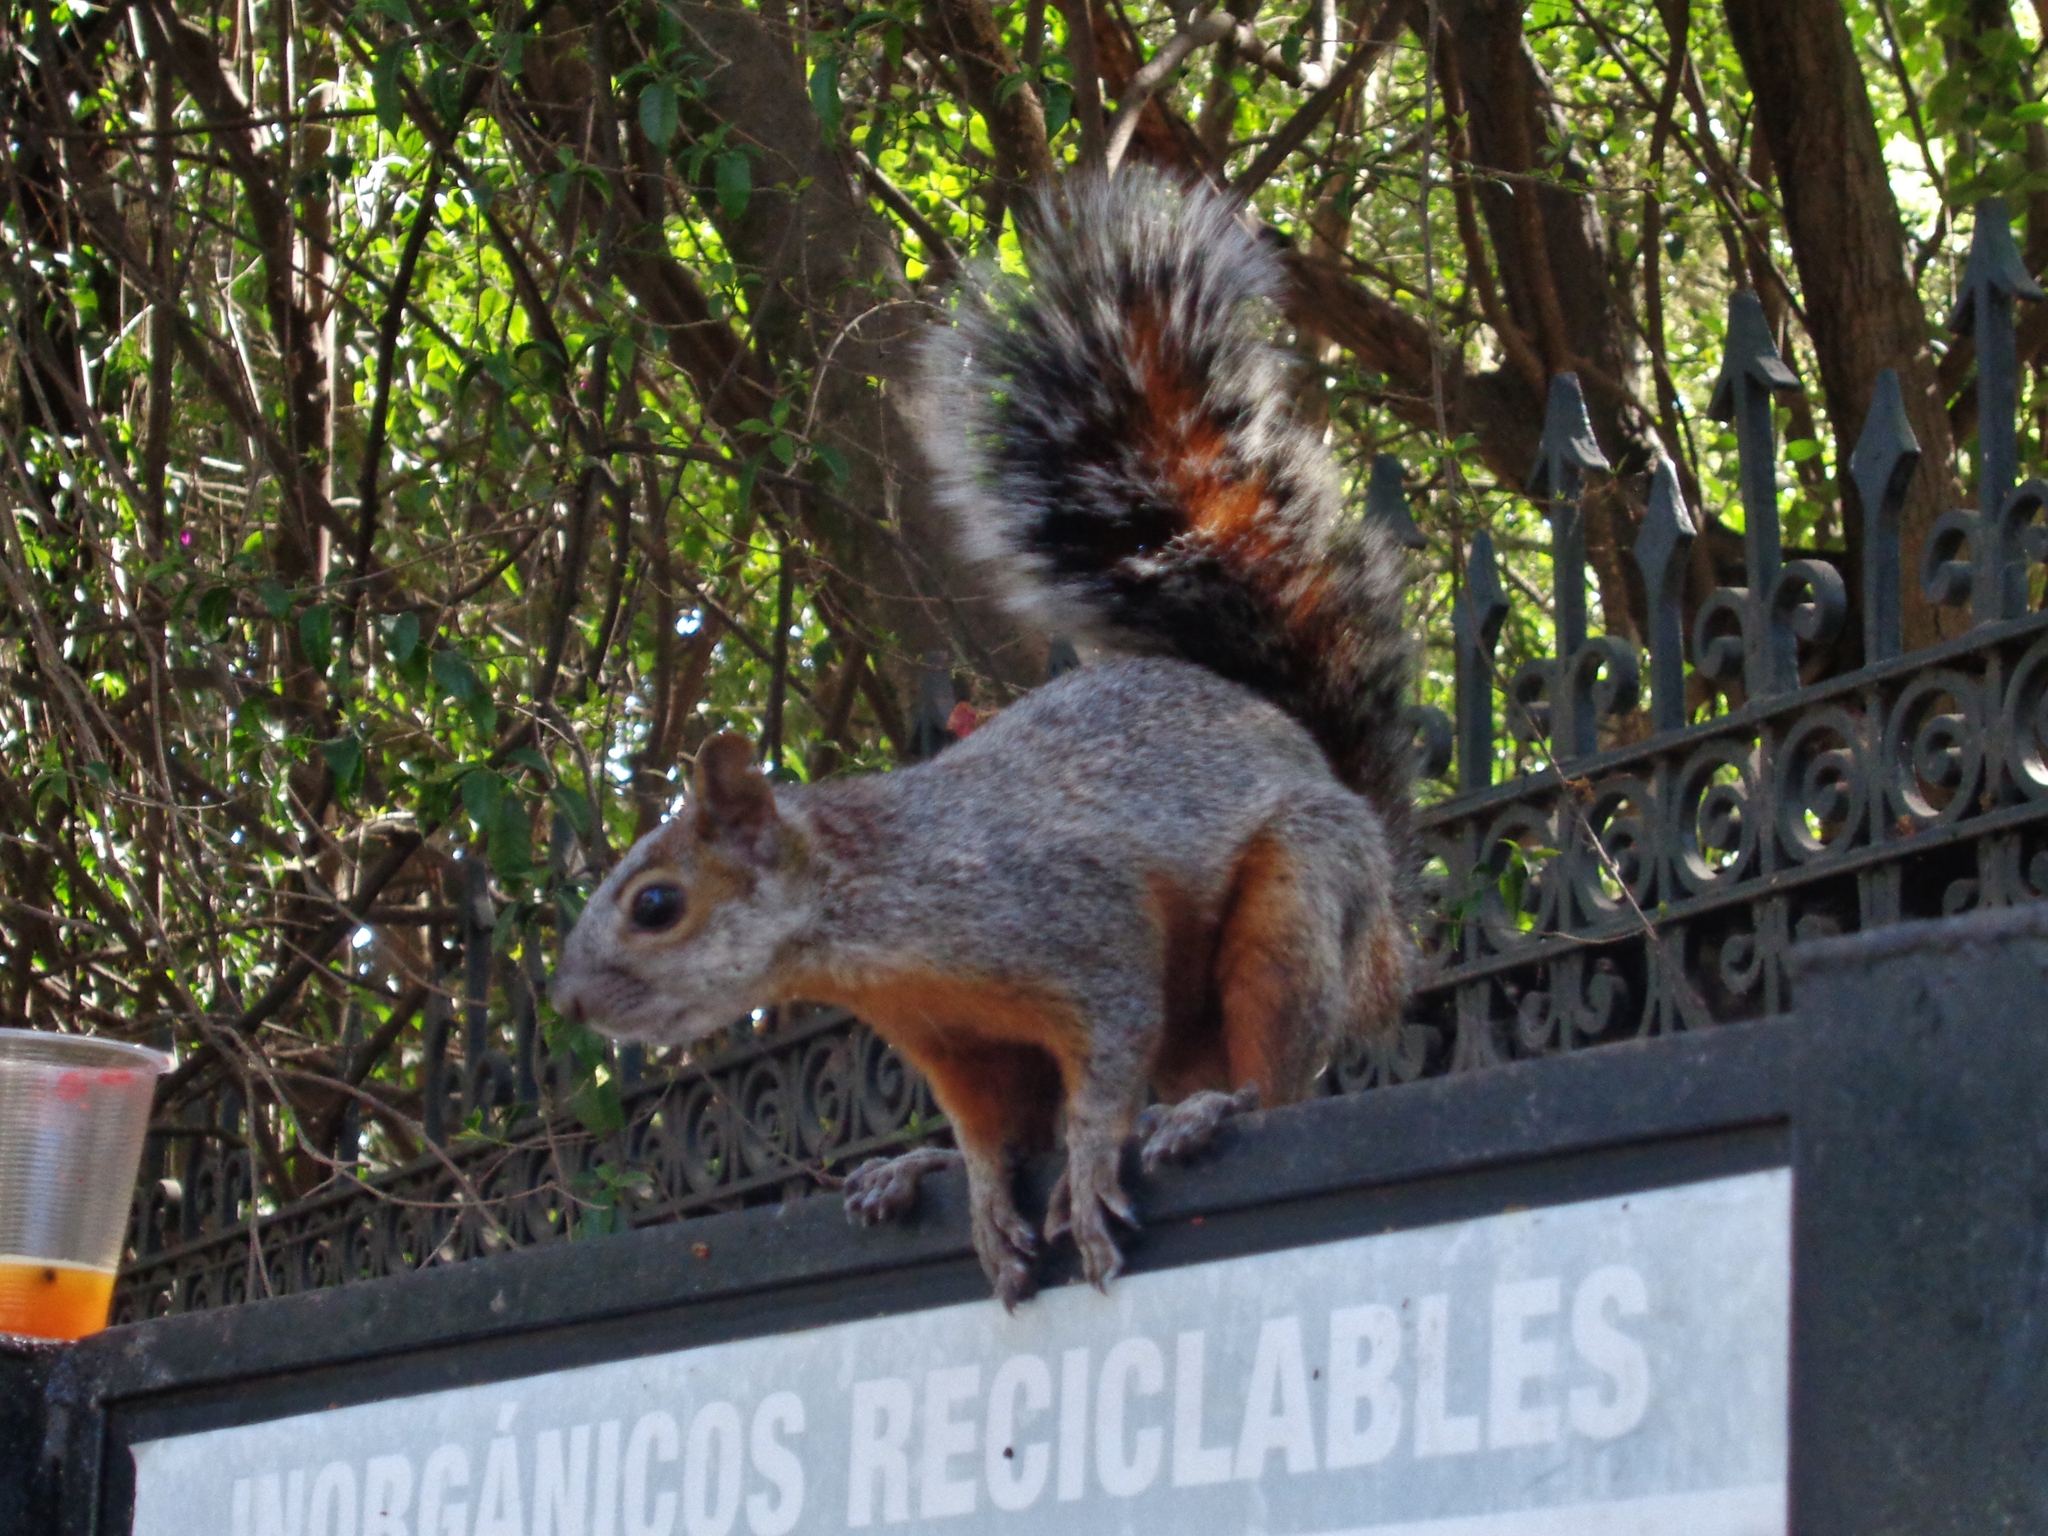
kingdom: Animalia
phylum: Chordata
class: Mammalia
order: Rodentia
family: Sciuridae
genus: Sciurus
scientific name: Sciurus aureogaster
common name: Red-bellied squirrel
